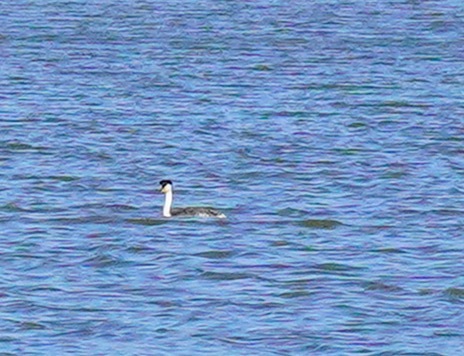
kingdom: Animalia
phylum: Chordata
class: Aves
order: Podicipediformes
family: Podicipedidae
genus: Aechmophorus
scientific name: Aechmophorus clarkii
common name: Clark's grebe
